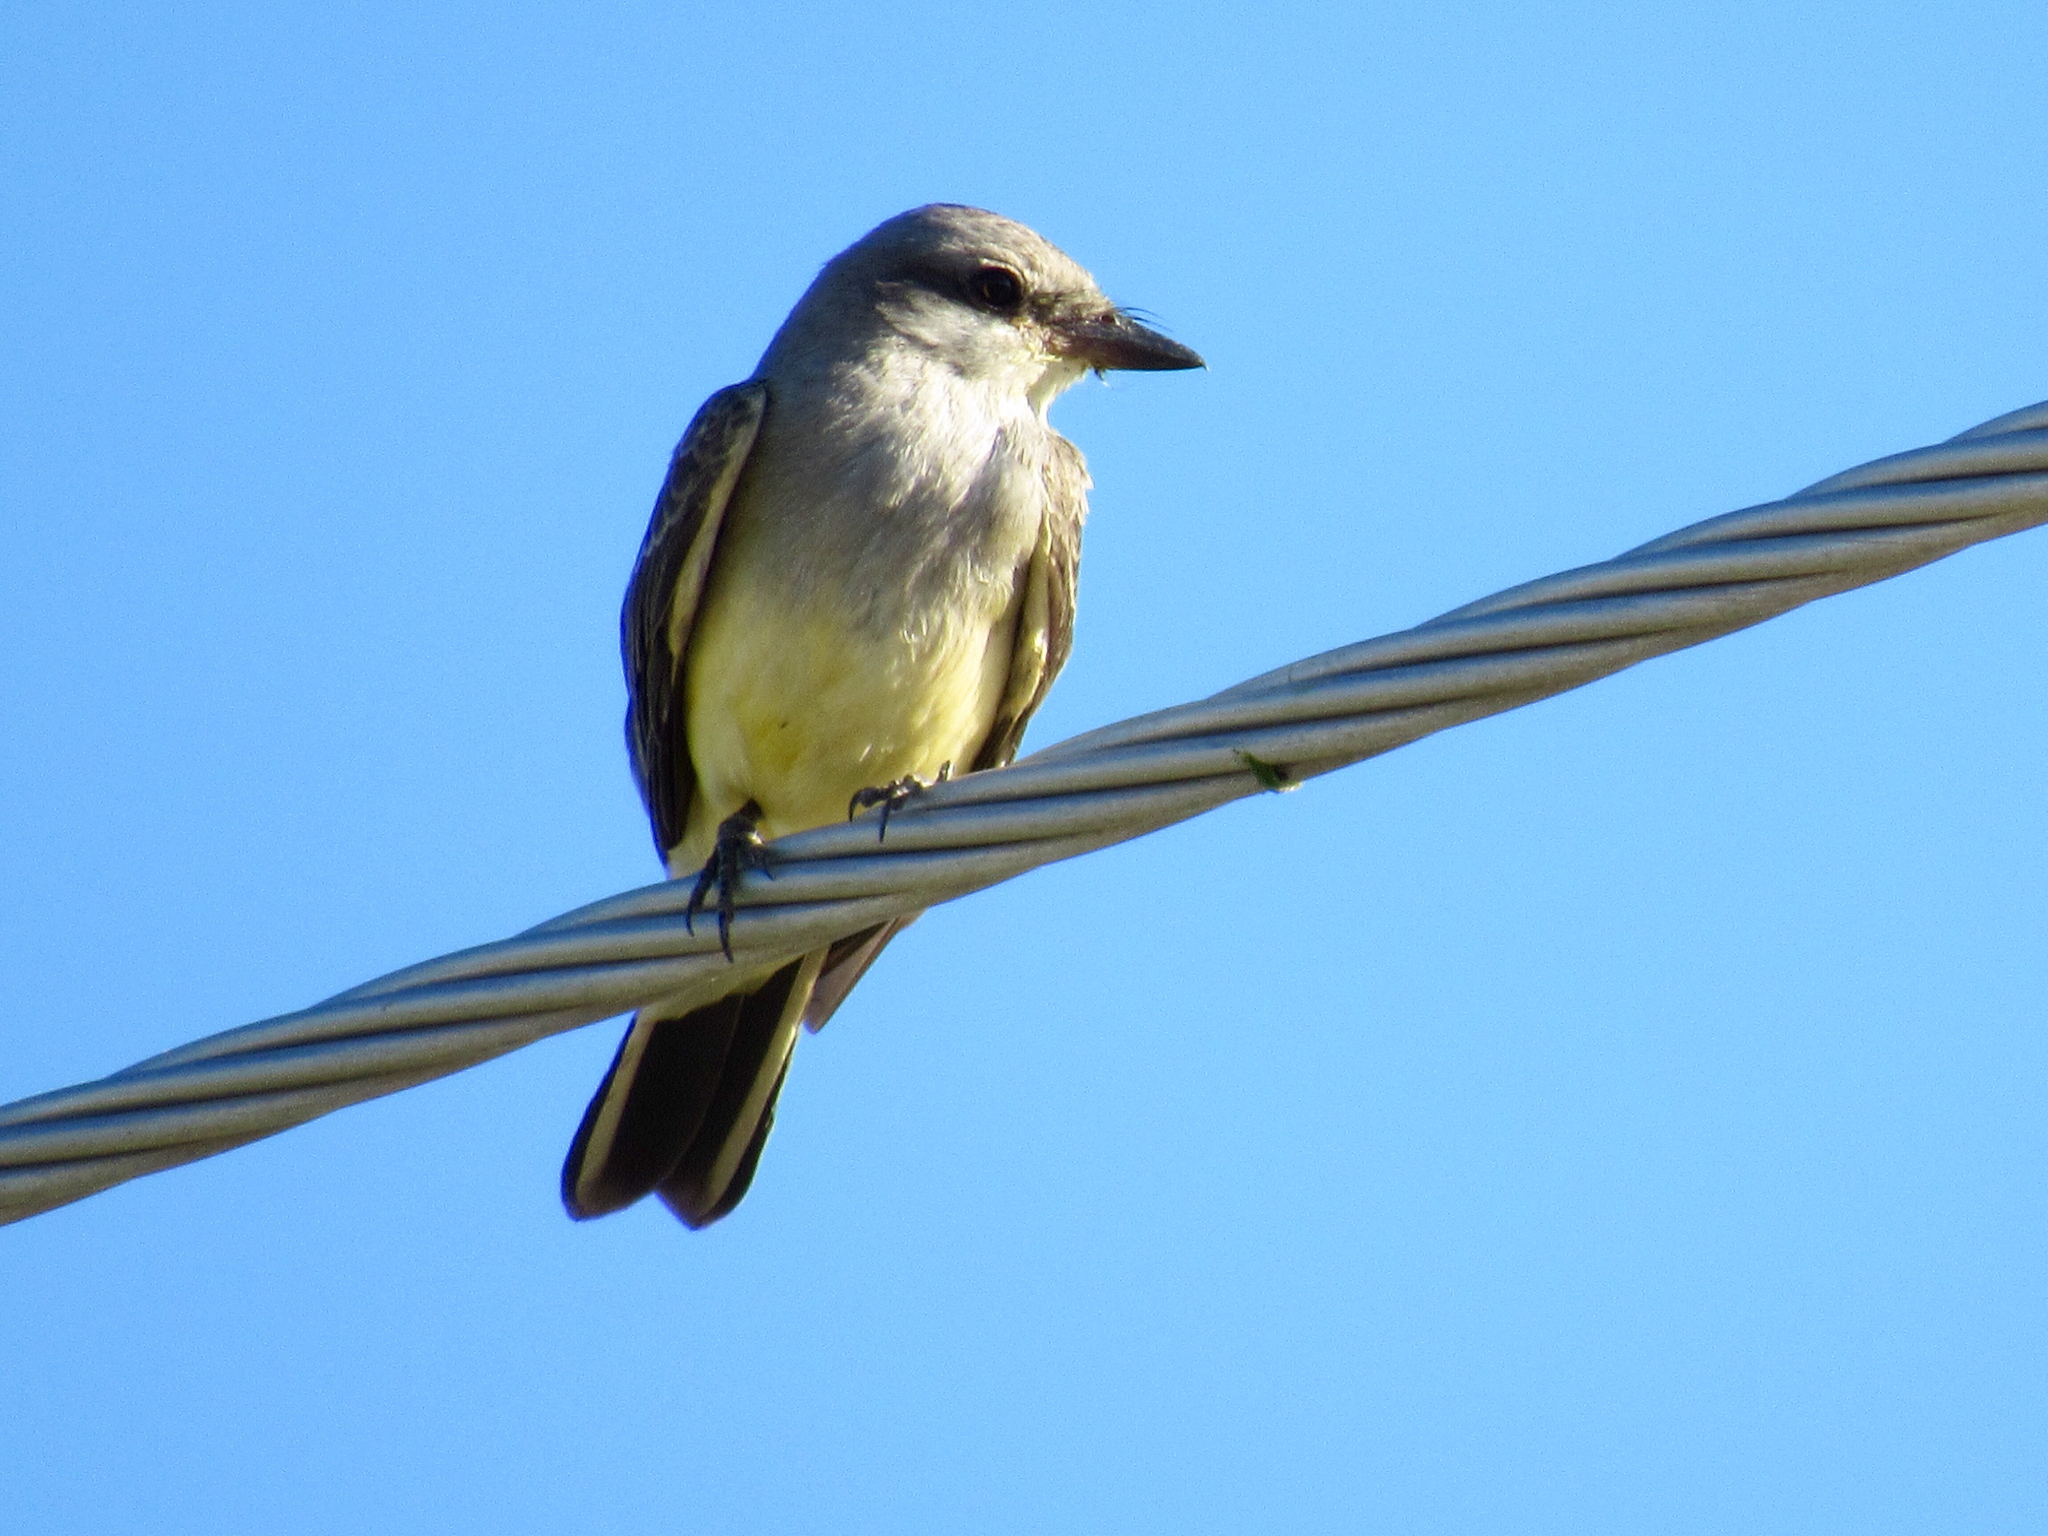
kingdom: Animalia
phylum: Chordata
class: Aves
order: Passeriformes
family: Tyrannidae
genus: Tyrannus
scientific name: Tyrannus verticalis
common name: Western kingbird
